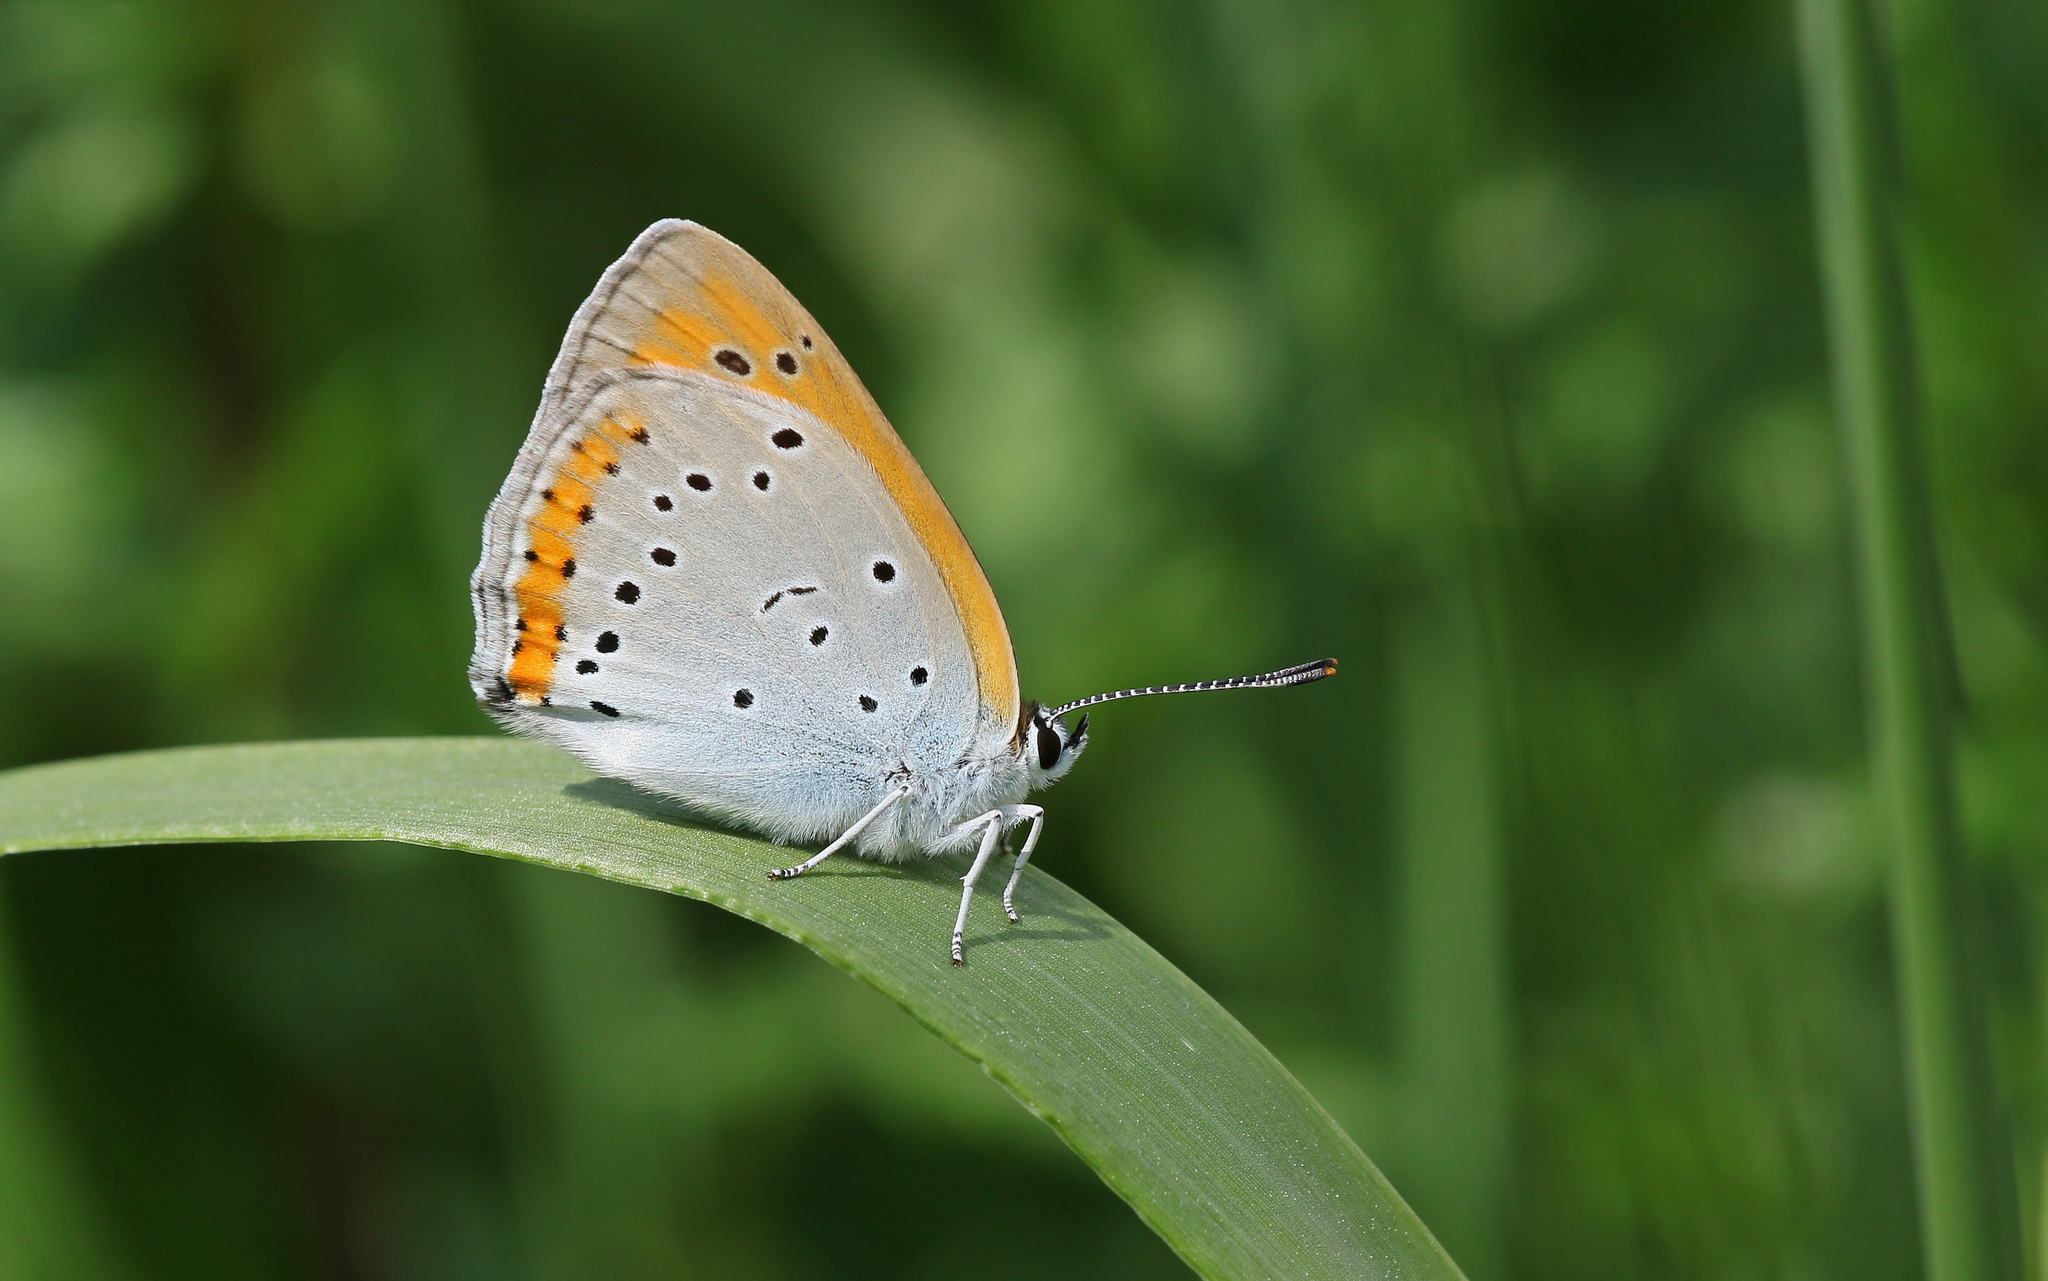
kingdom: Animalia
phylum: Arthropoda
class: Insecta
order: Lepidoptera
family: Lycaenidae
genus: Lycaena
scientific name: Lycaena dispar
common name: Large copper
